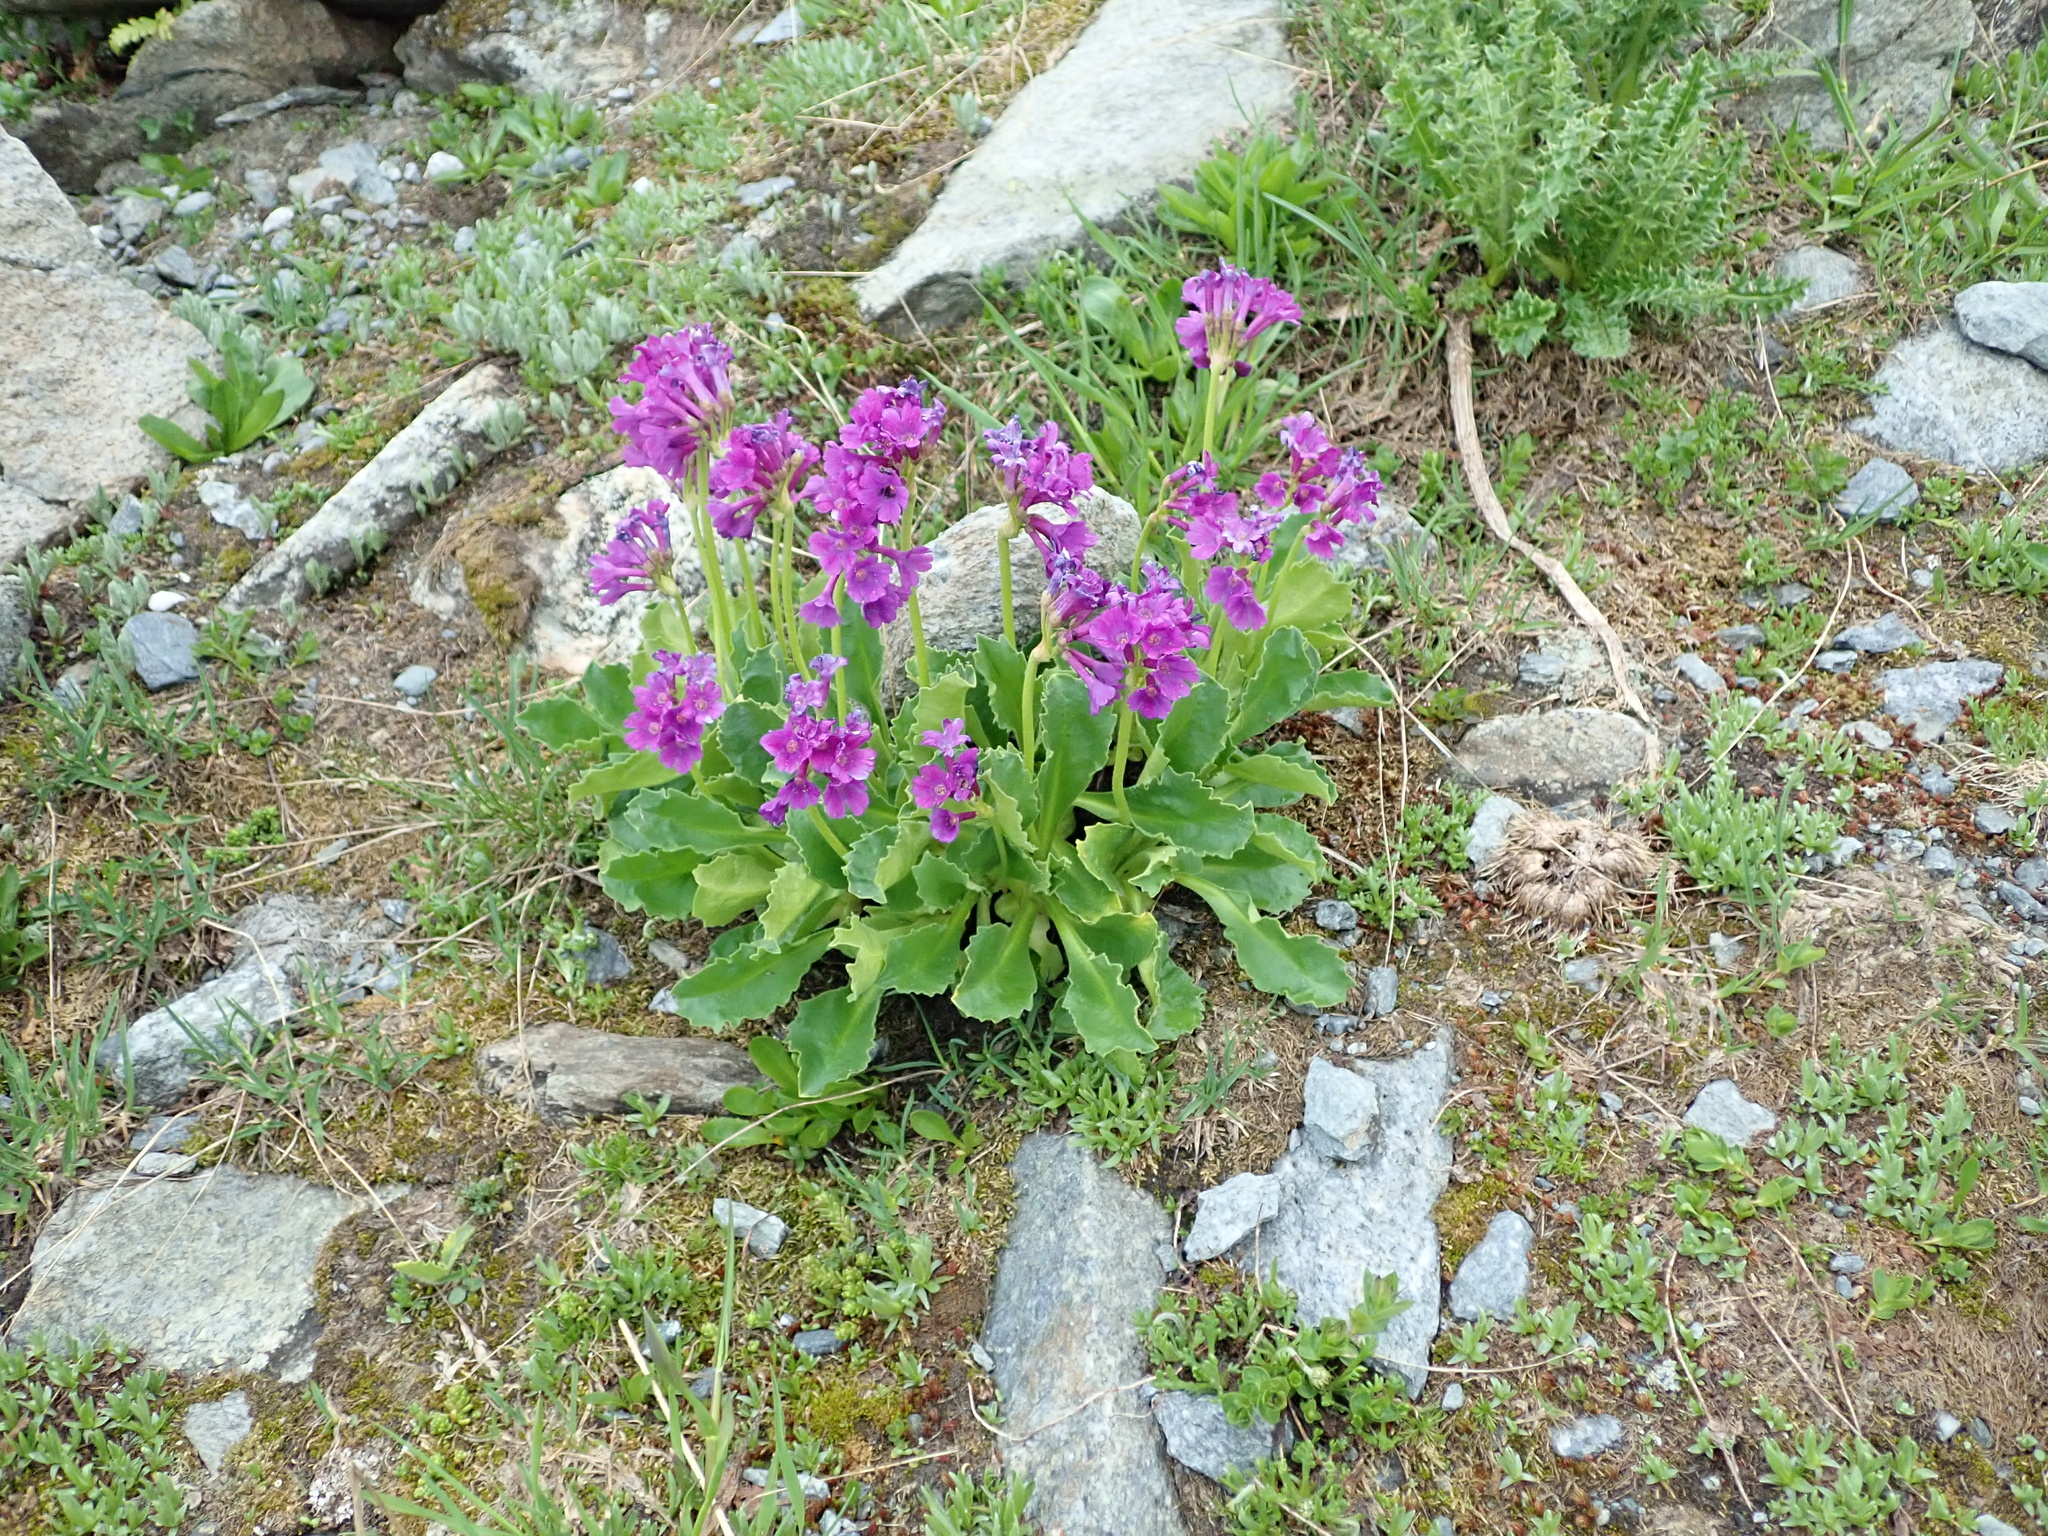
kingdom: Plantae
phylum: Tracheophyta
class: Magnoliopsida
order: Ericales
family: Primulaceae
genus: Primula
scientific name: Primula latifolia
